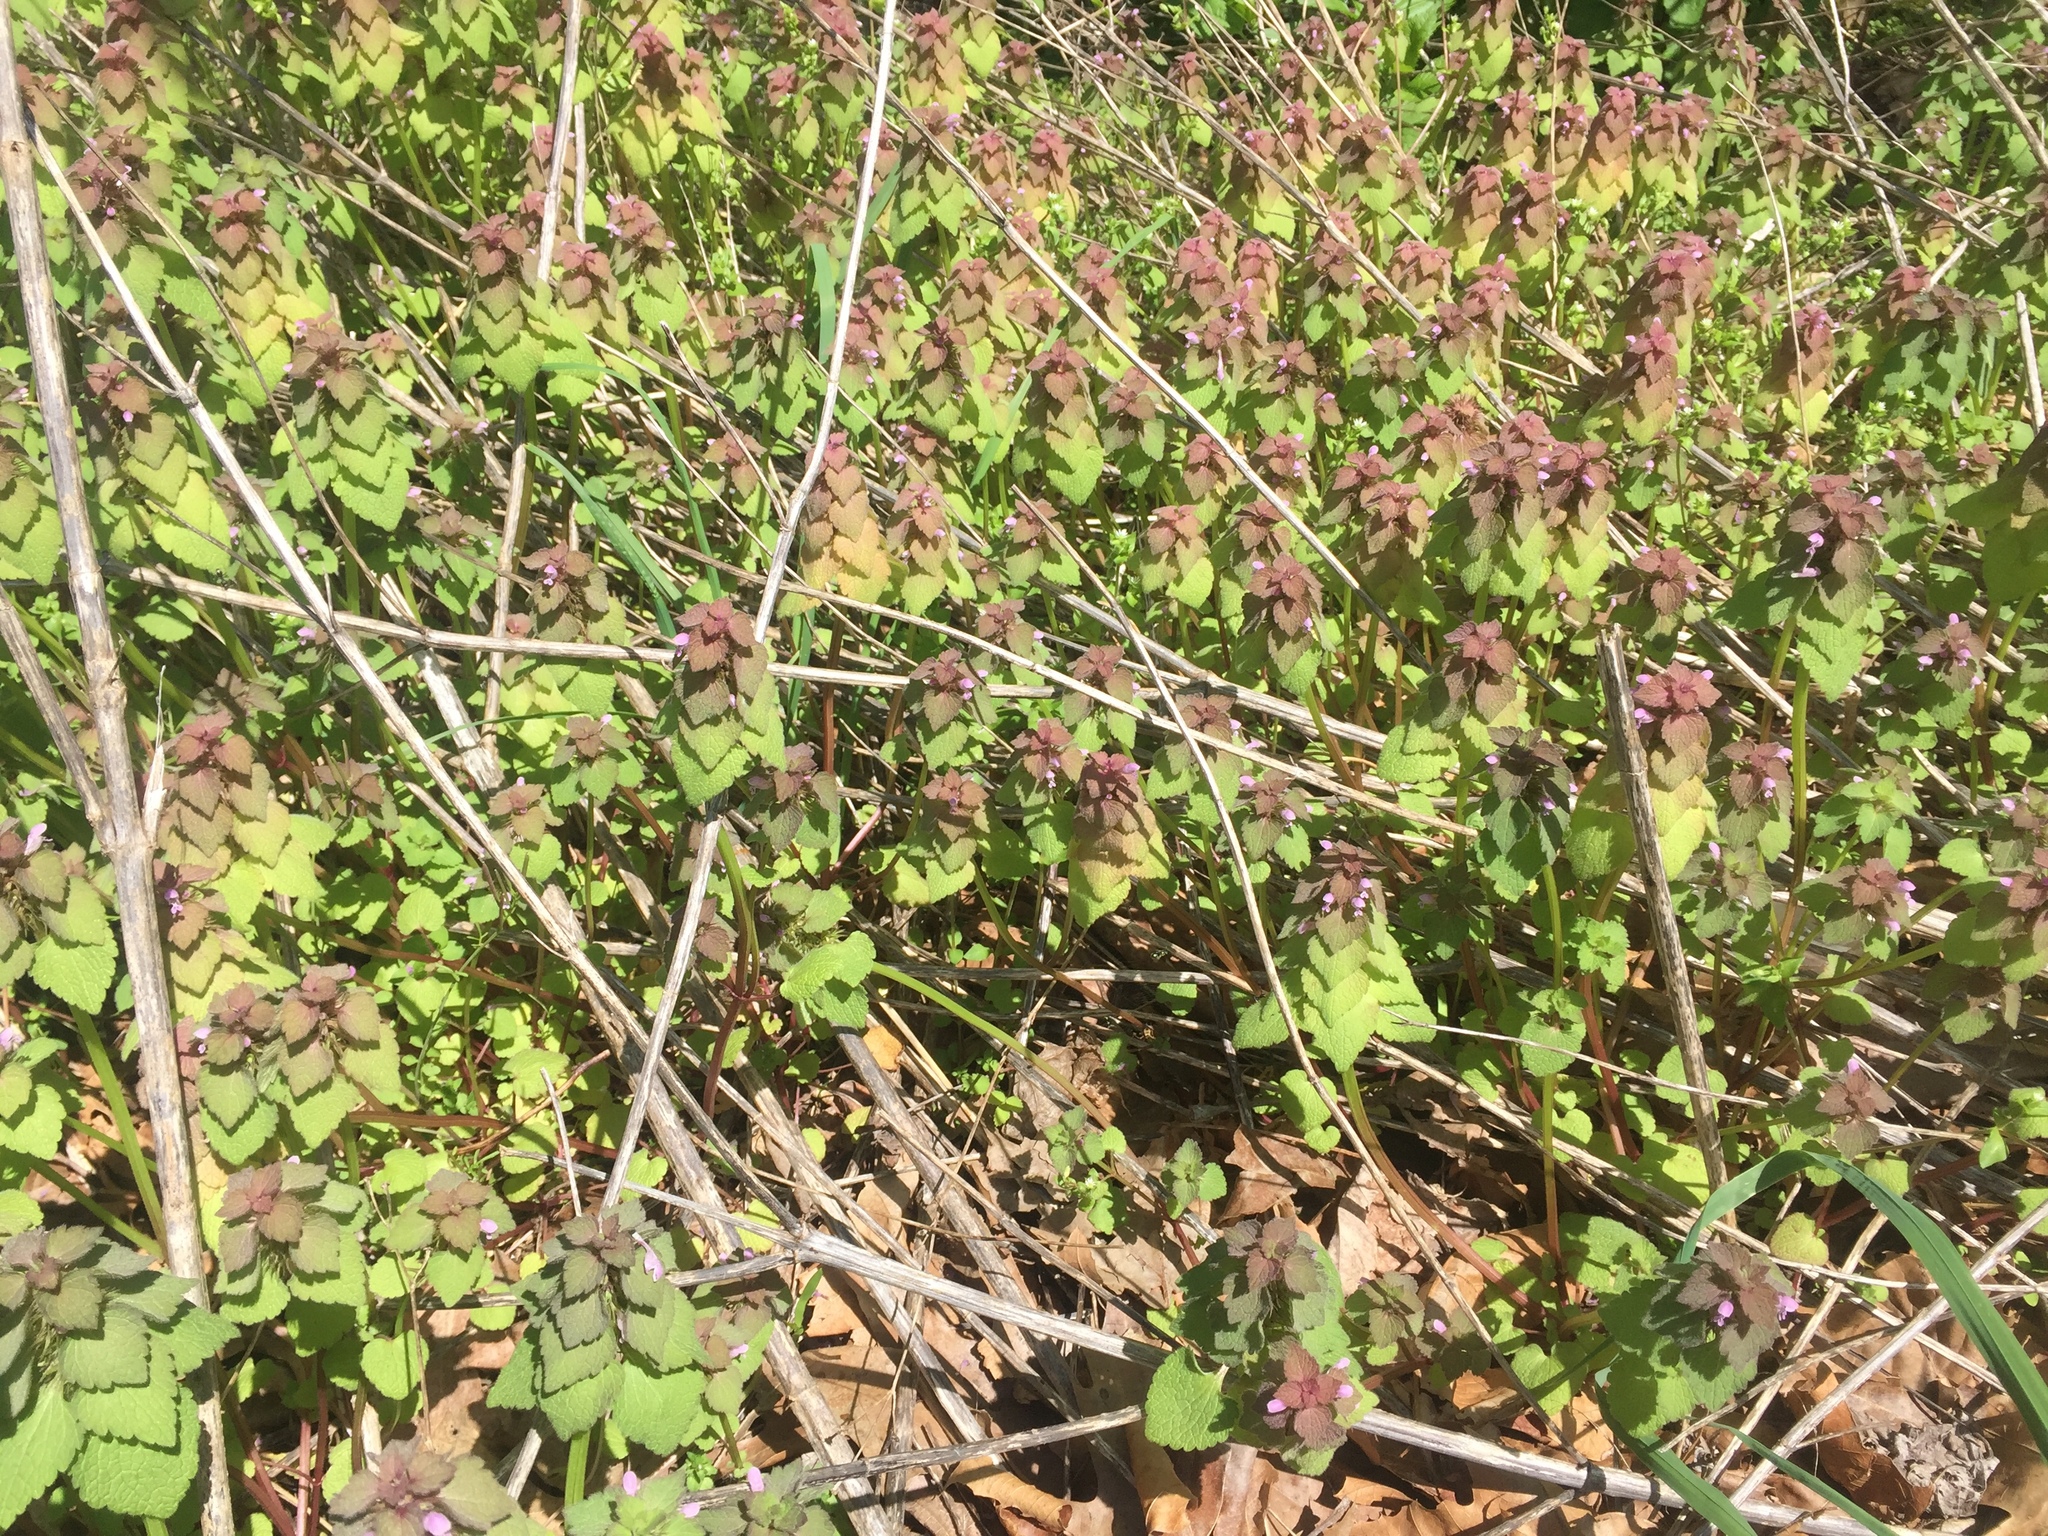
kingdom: Plantae
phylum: Tracheophyta
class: Magnoliopsida
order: Lamiales
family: Lamiaceae
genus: Lamium
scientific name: Lamium purpureum
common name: Red dead-nettle
